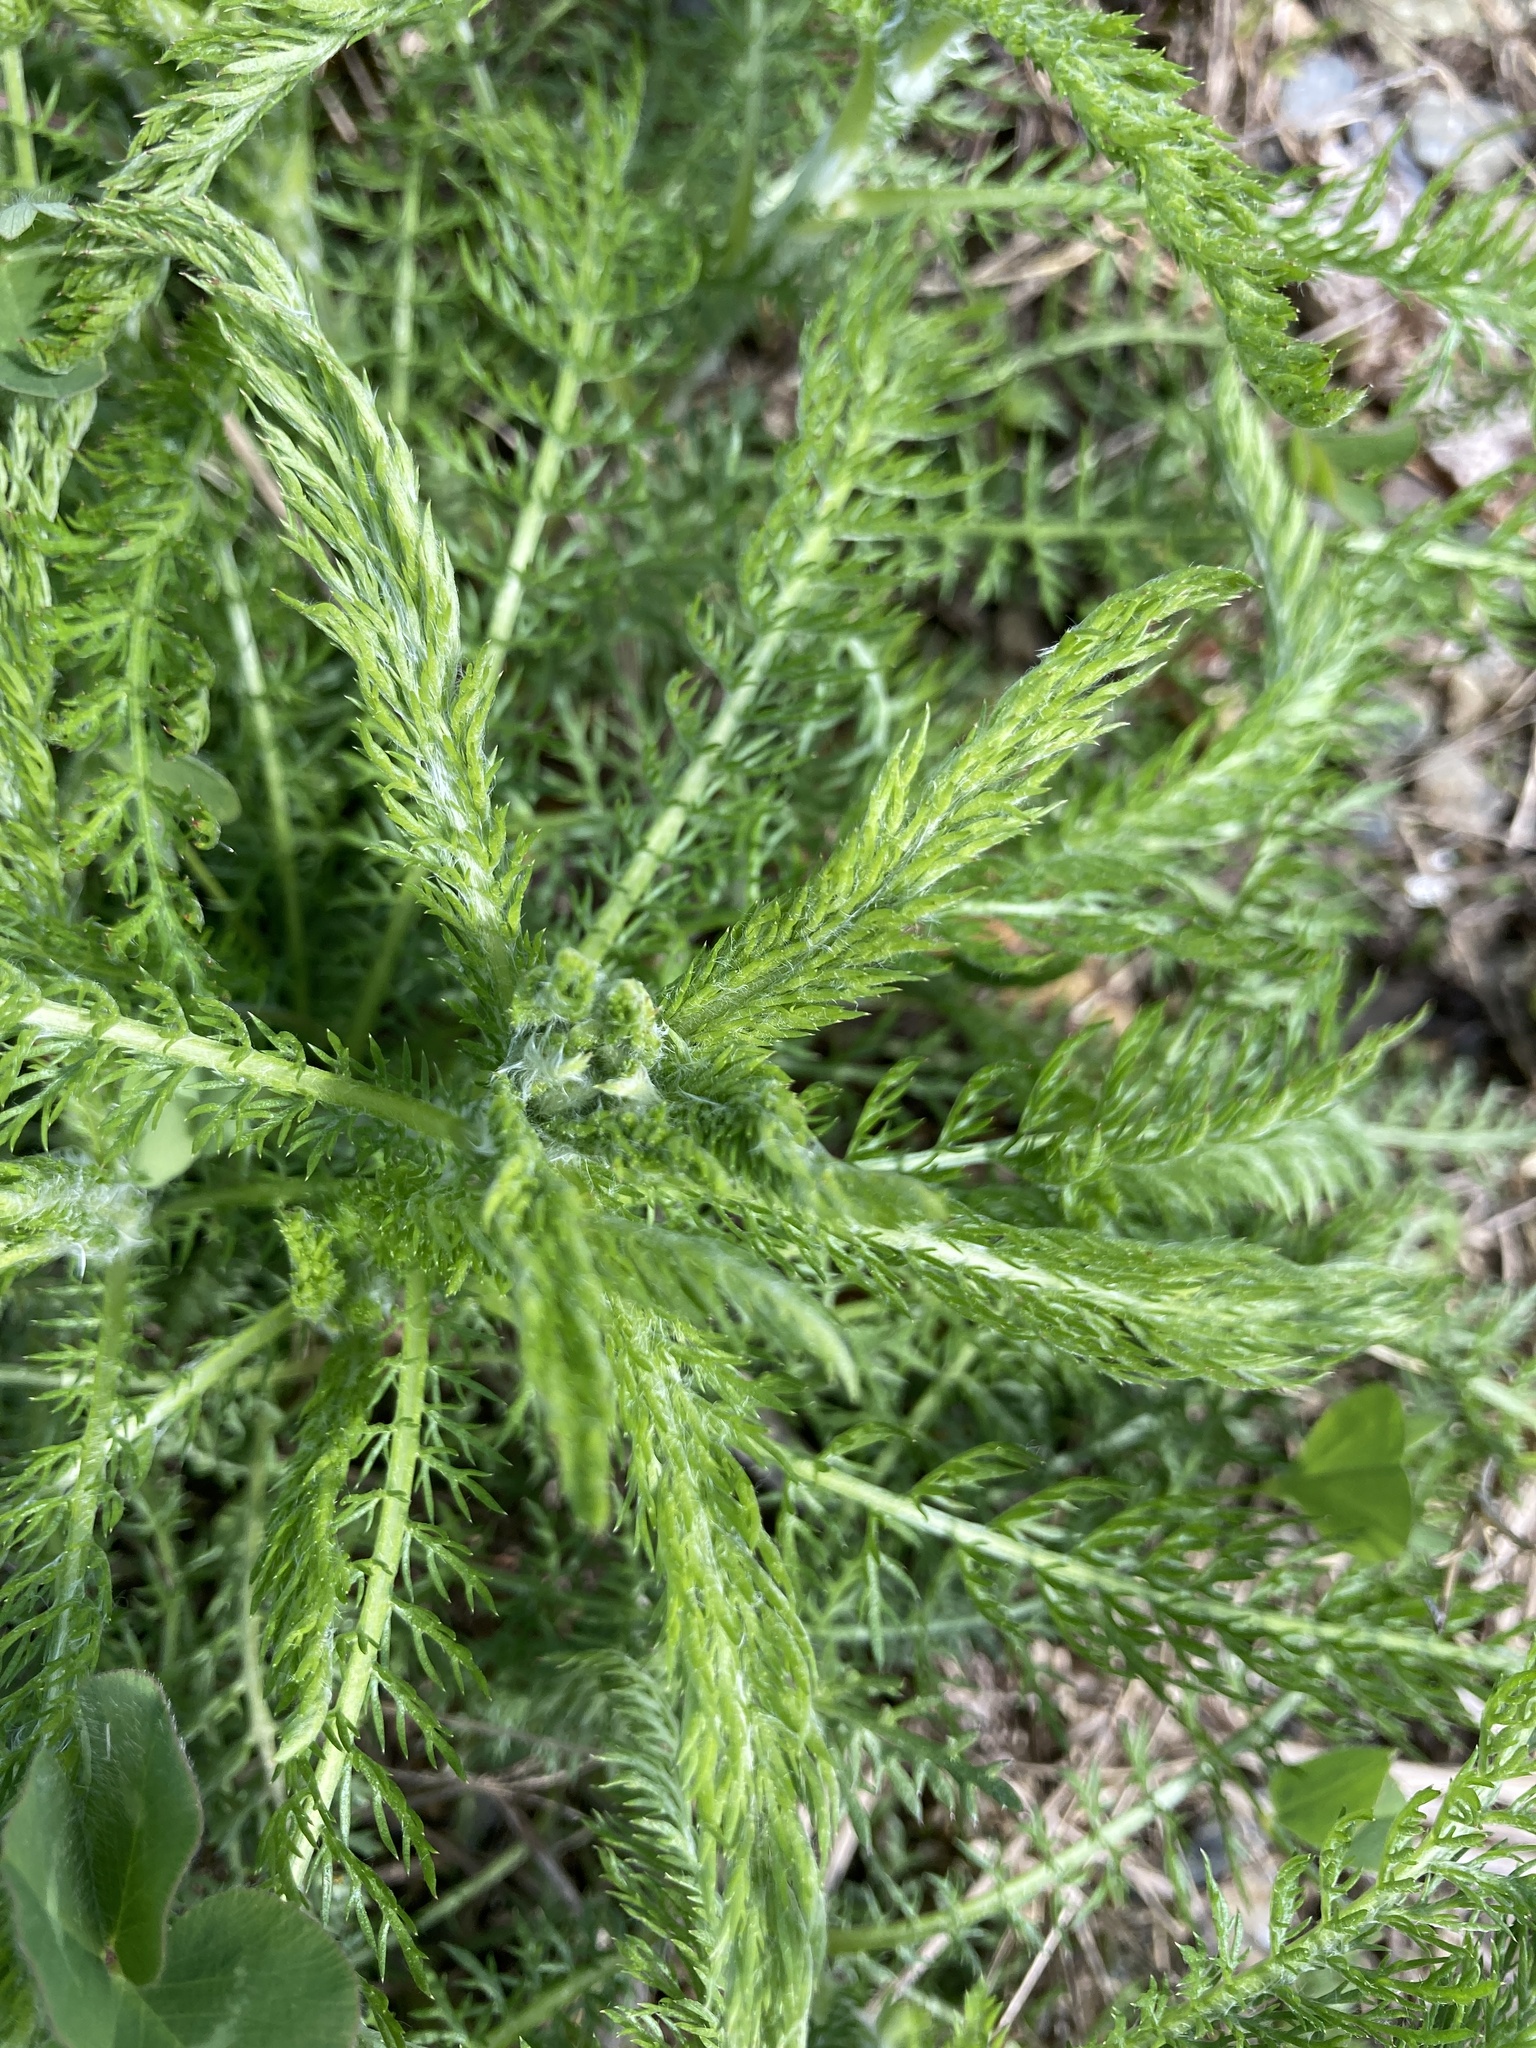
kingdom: Plantae
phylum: Tracheophyta
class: Magnoliopsida
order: Asterales
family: Asteraceae
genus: Achillea
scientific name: Achillea millefolium
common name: Yarrow
